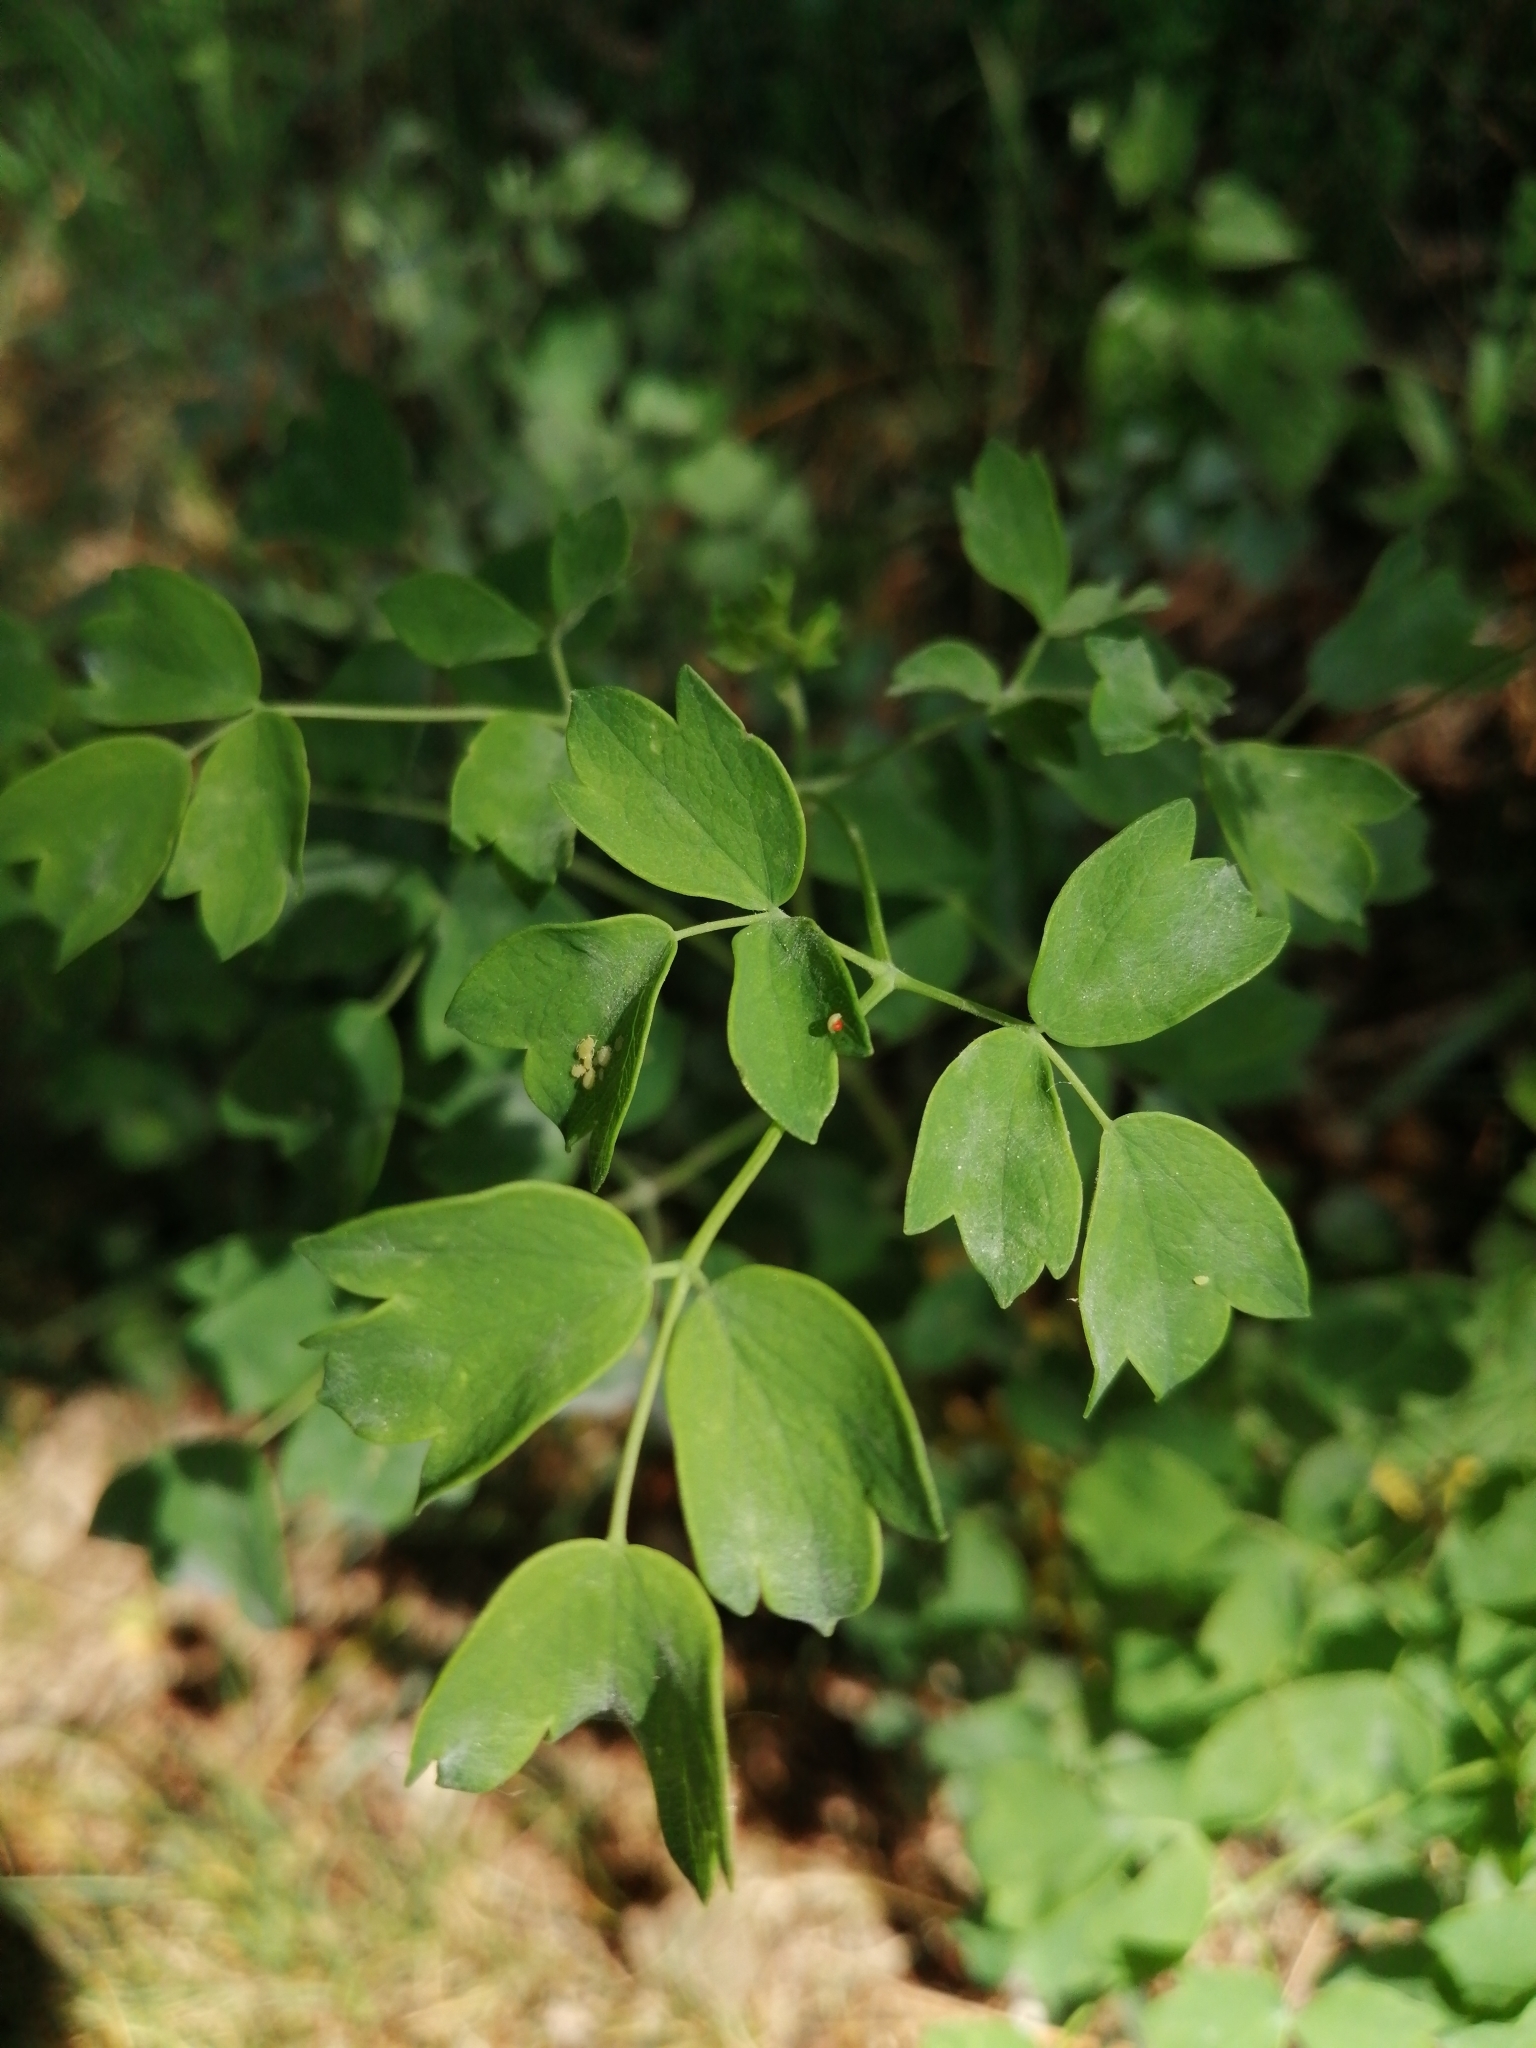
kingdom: Plantae
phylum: Tracheophyta
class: Magnoliopsida
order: Ranunculales
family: Ranunculaceae
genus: Thalictrum
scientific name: Thalictrum aquilegiifolium
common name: French meadow-rue
